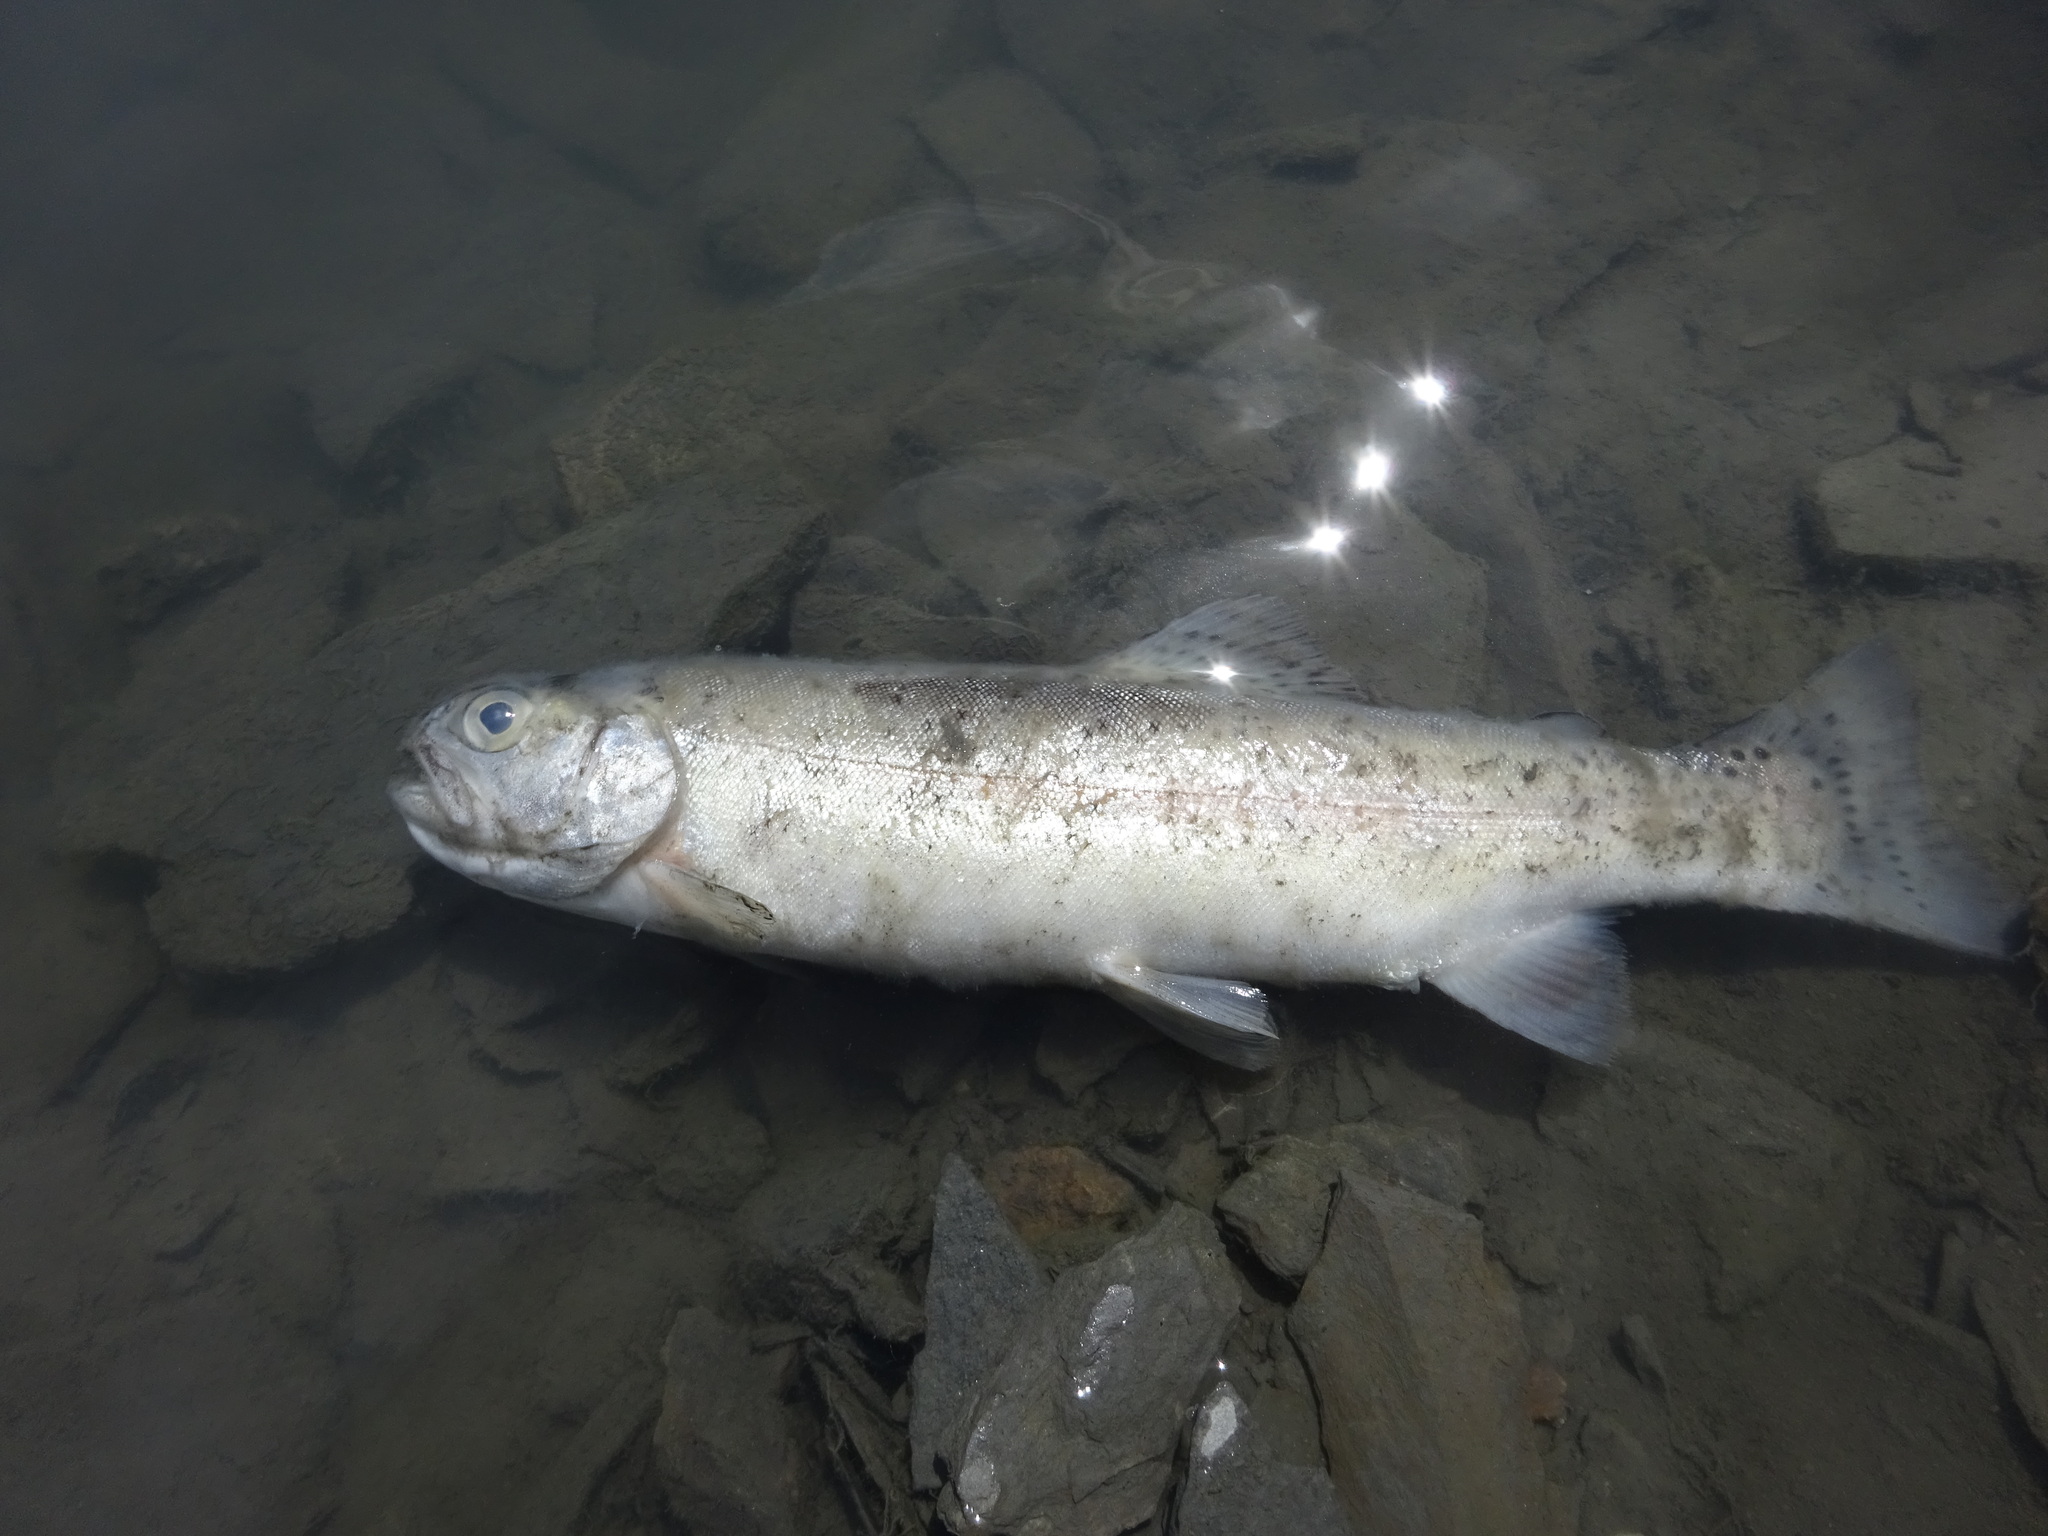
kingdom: Animalia
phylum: Chordata
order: Salmoniformes
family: Salmonidae
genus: Oncorhynchus
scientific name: Oncorhynchus mykiss
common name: Rainbow trout
